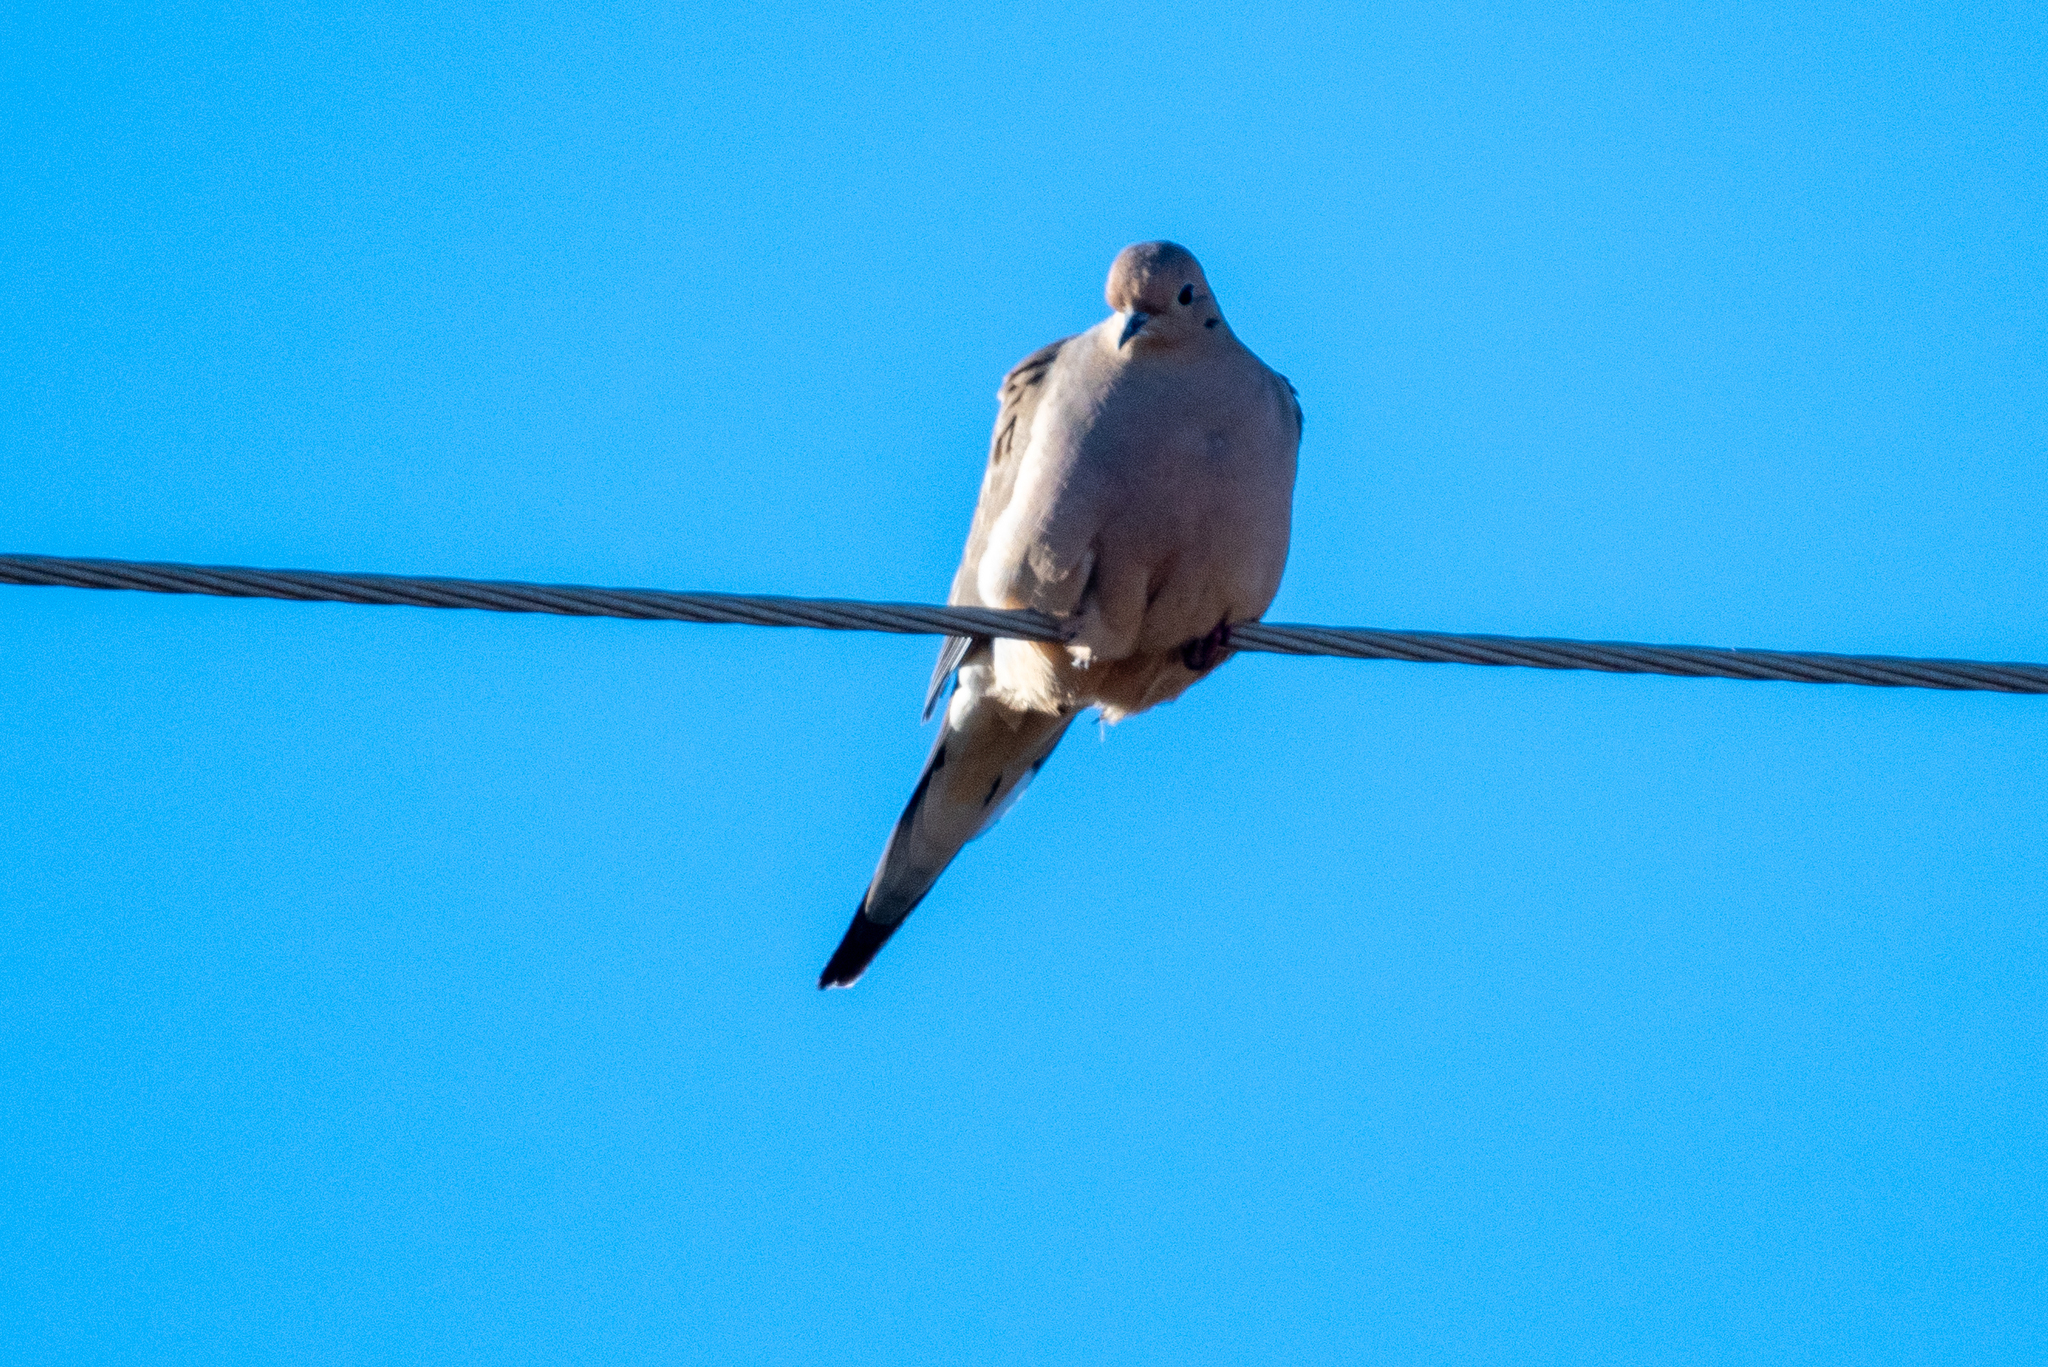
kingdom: Animalia
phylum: Chordata
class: Aves
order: Columbiformes
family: Columbidae
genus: Zenaida
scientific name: Zenaida macroura
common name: Mourning dove
